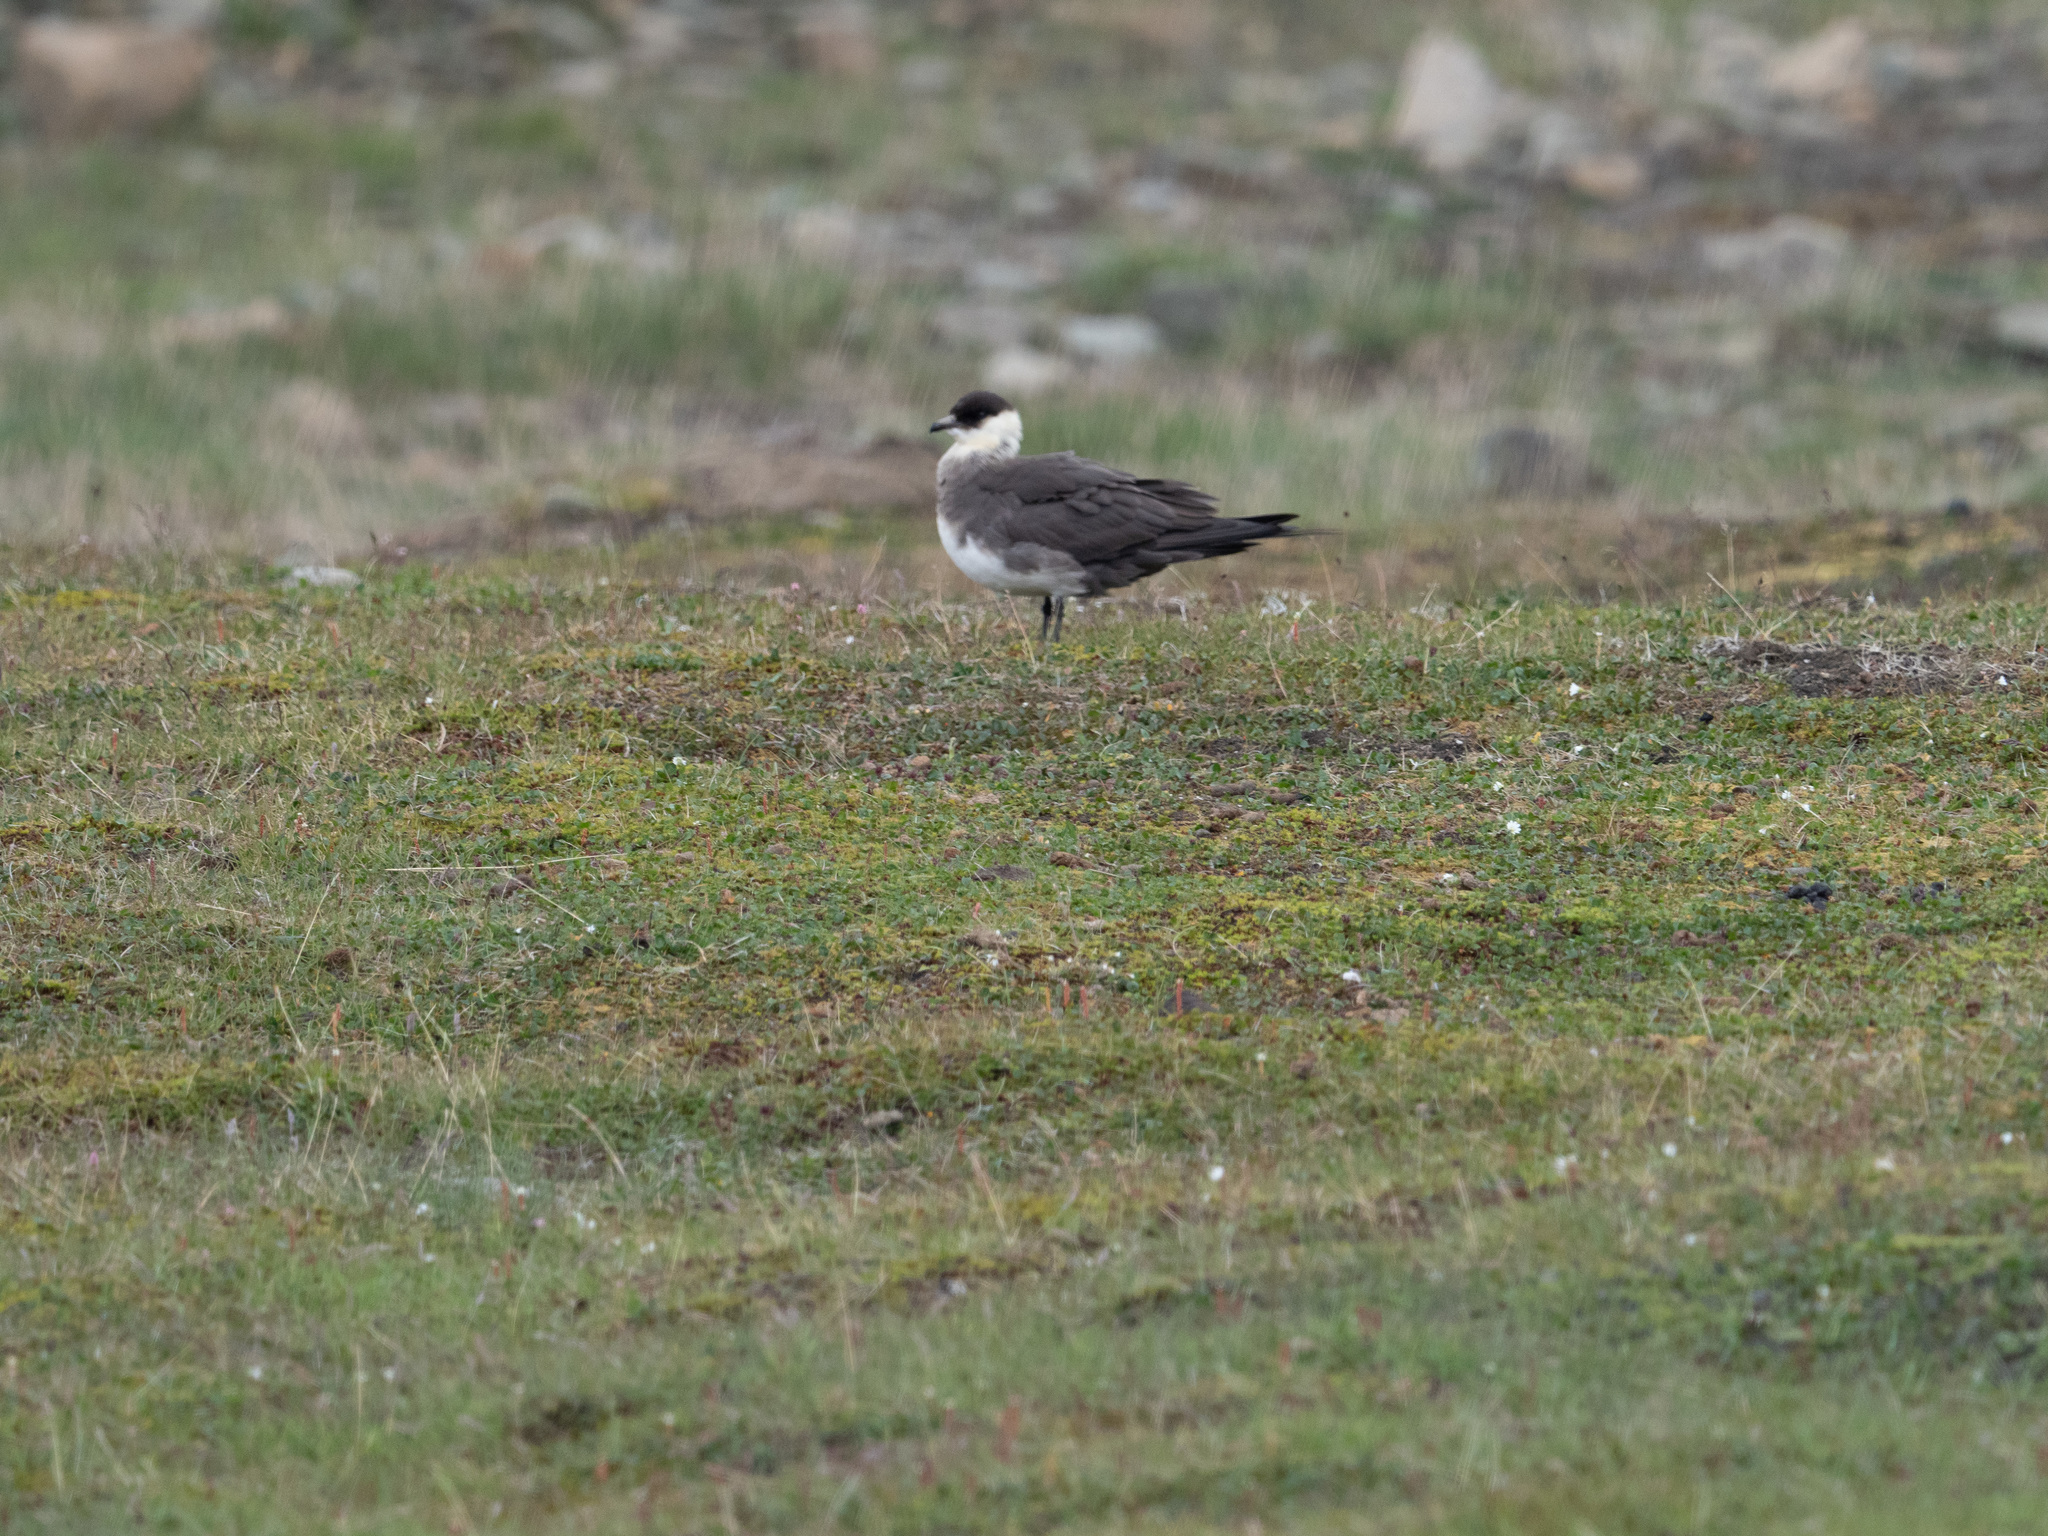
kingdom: Animalia
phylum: Chordata
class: Aves
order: Charadriiformes
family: Stercorariidae
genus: Stercorarius
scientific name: Stercorarius parasiticus
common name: Parasitic jaeger
